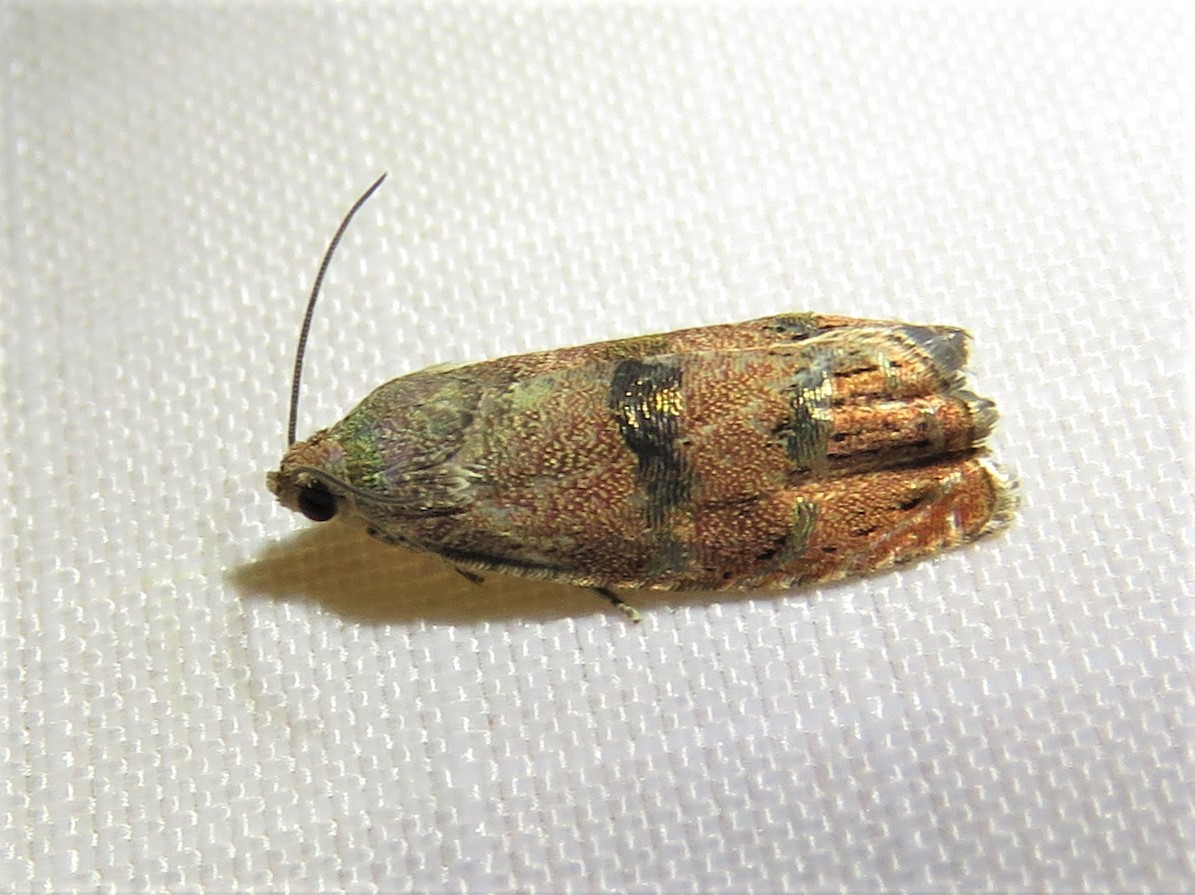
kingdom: Animalia
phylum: Arthropoda
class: Insecta
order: Lepidoptera
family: Tortricidae
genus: Cydia
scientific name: Cydia latiferreana
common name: Filbertworm moth
